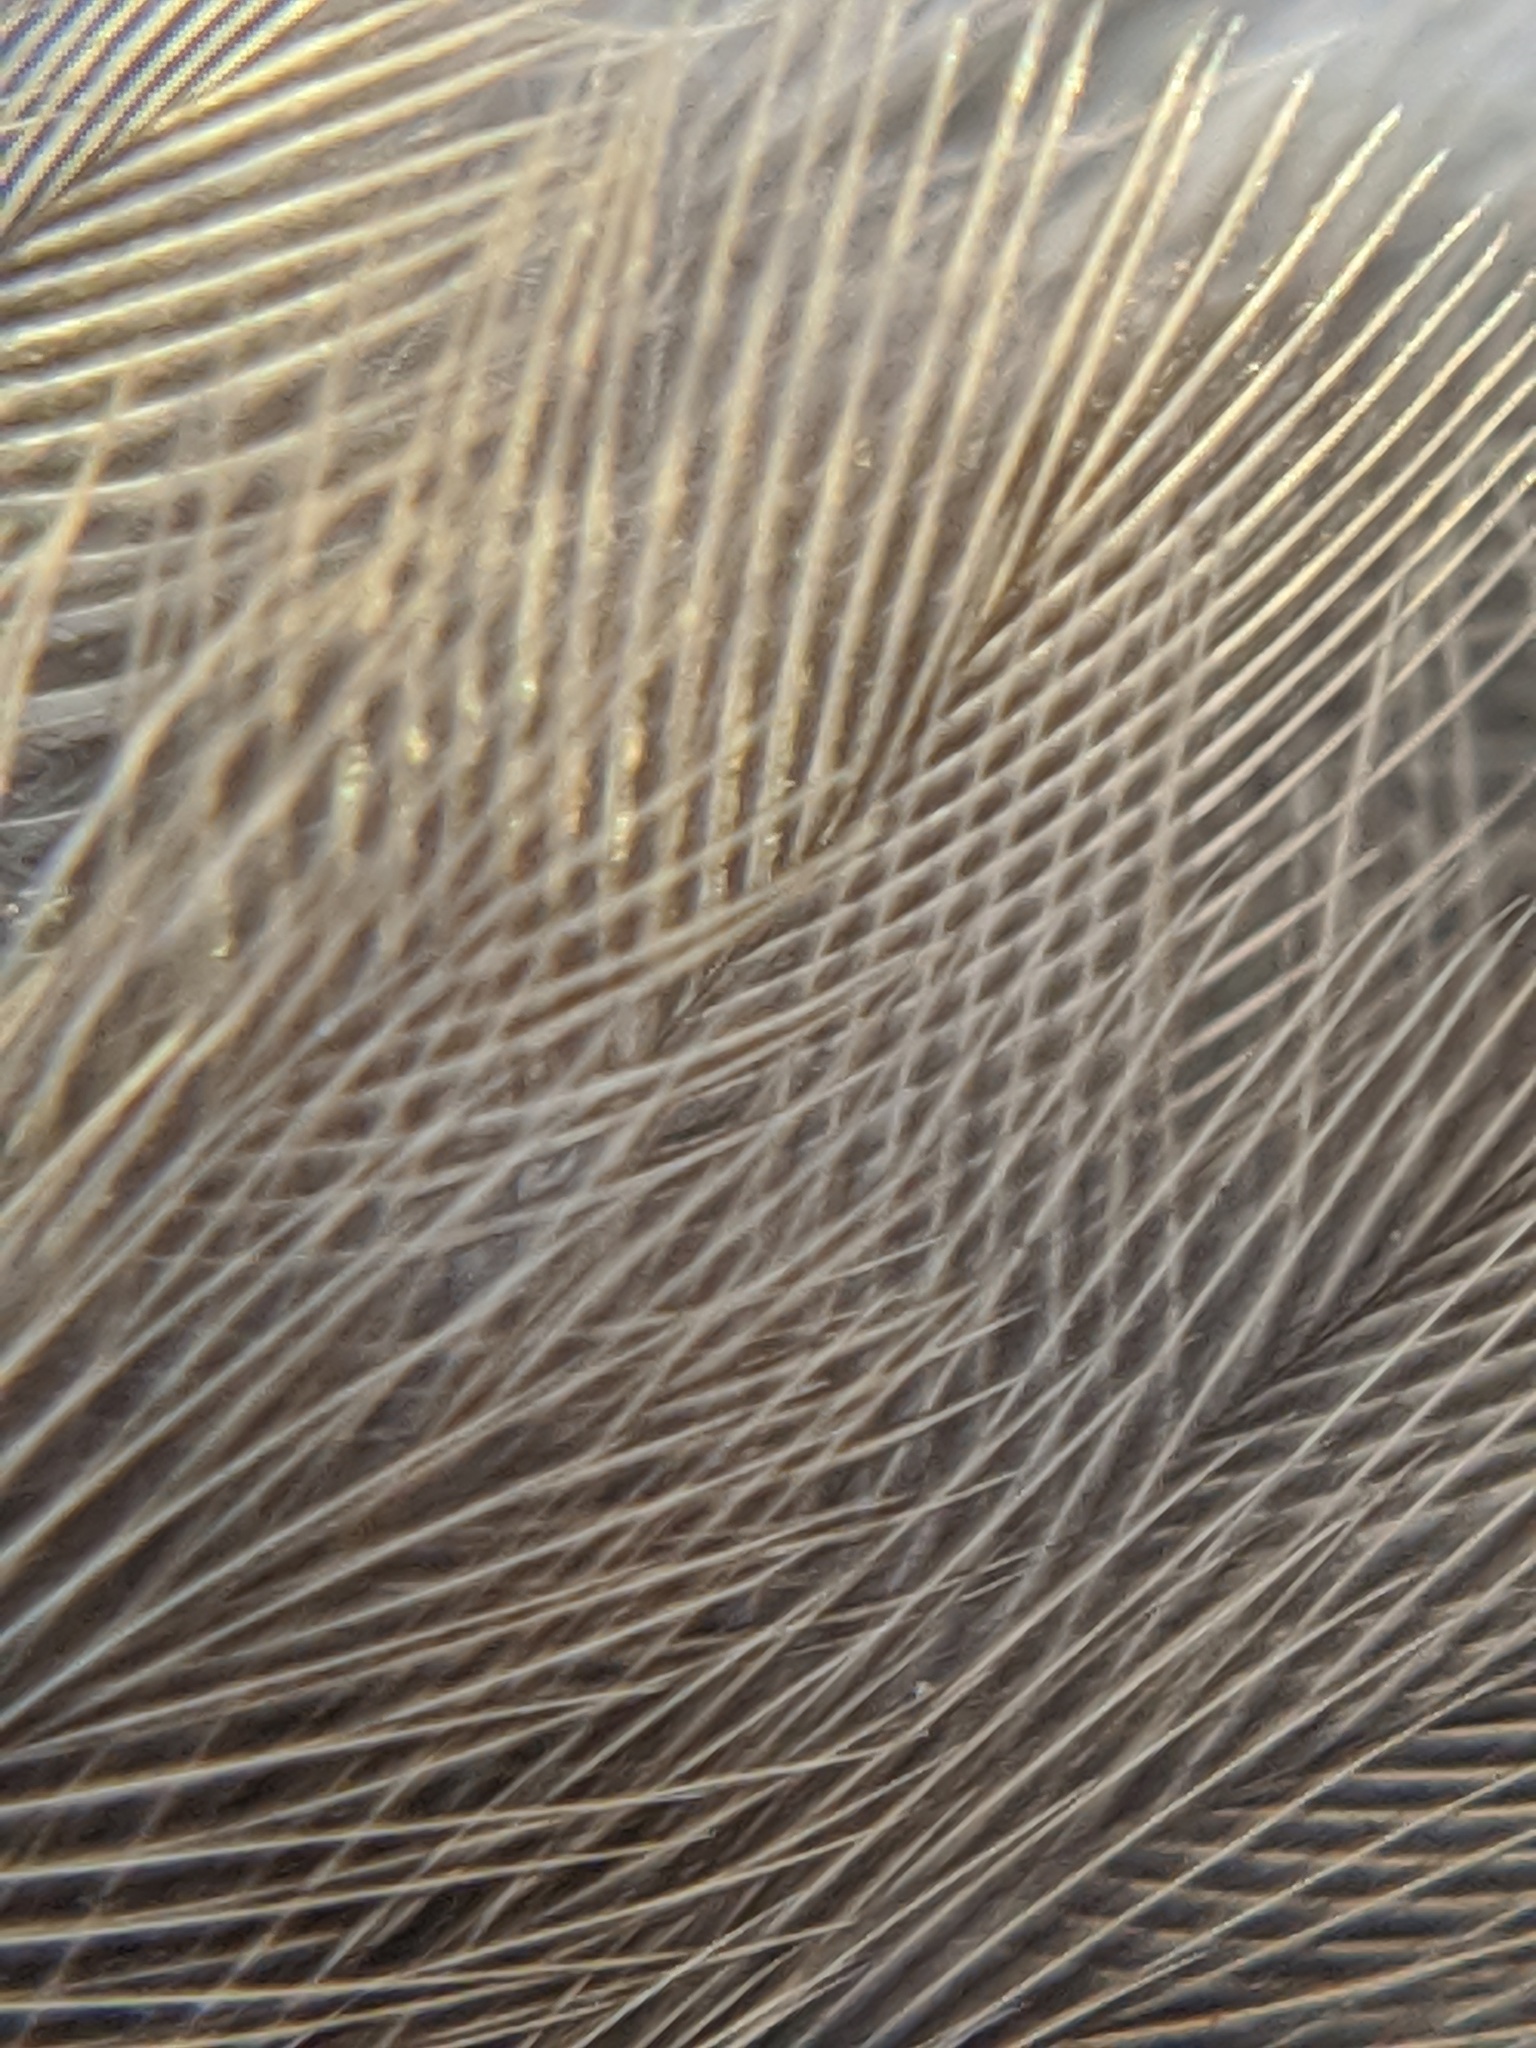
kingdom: Animalia
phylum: Chordata
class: Aves
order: Passeriformes
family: Passeridae
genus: Passer
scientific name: Passer domesticus
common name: House sparrow
